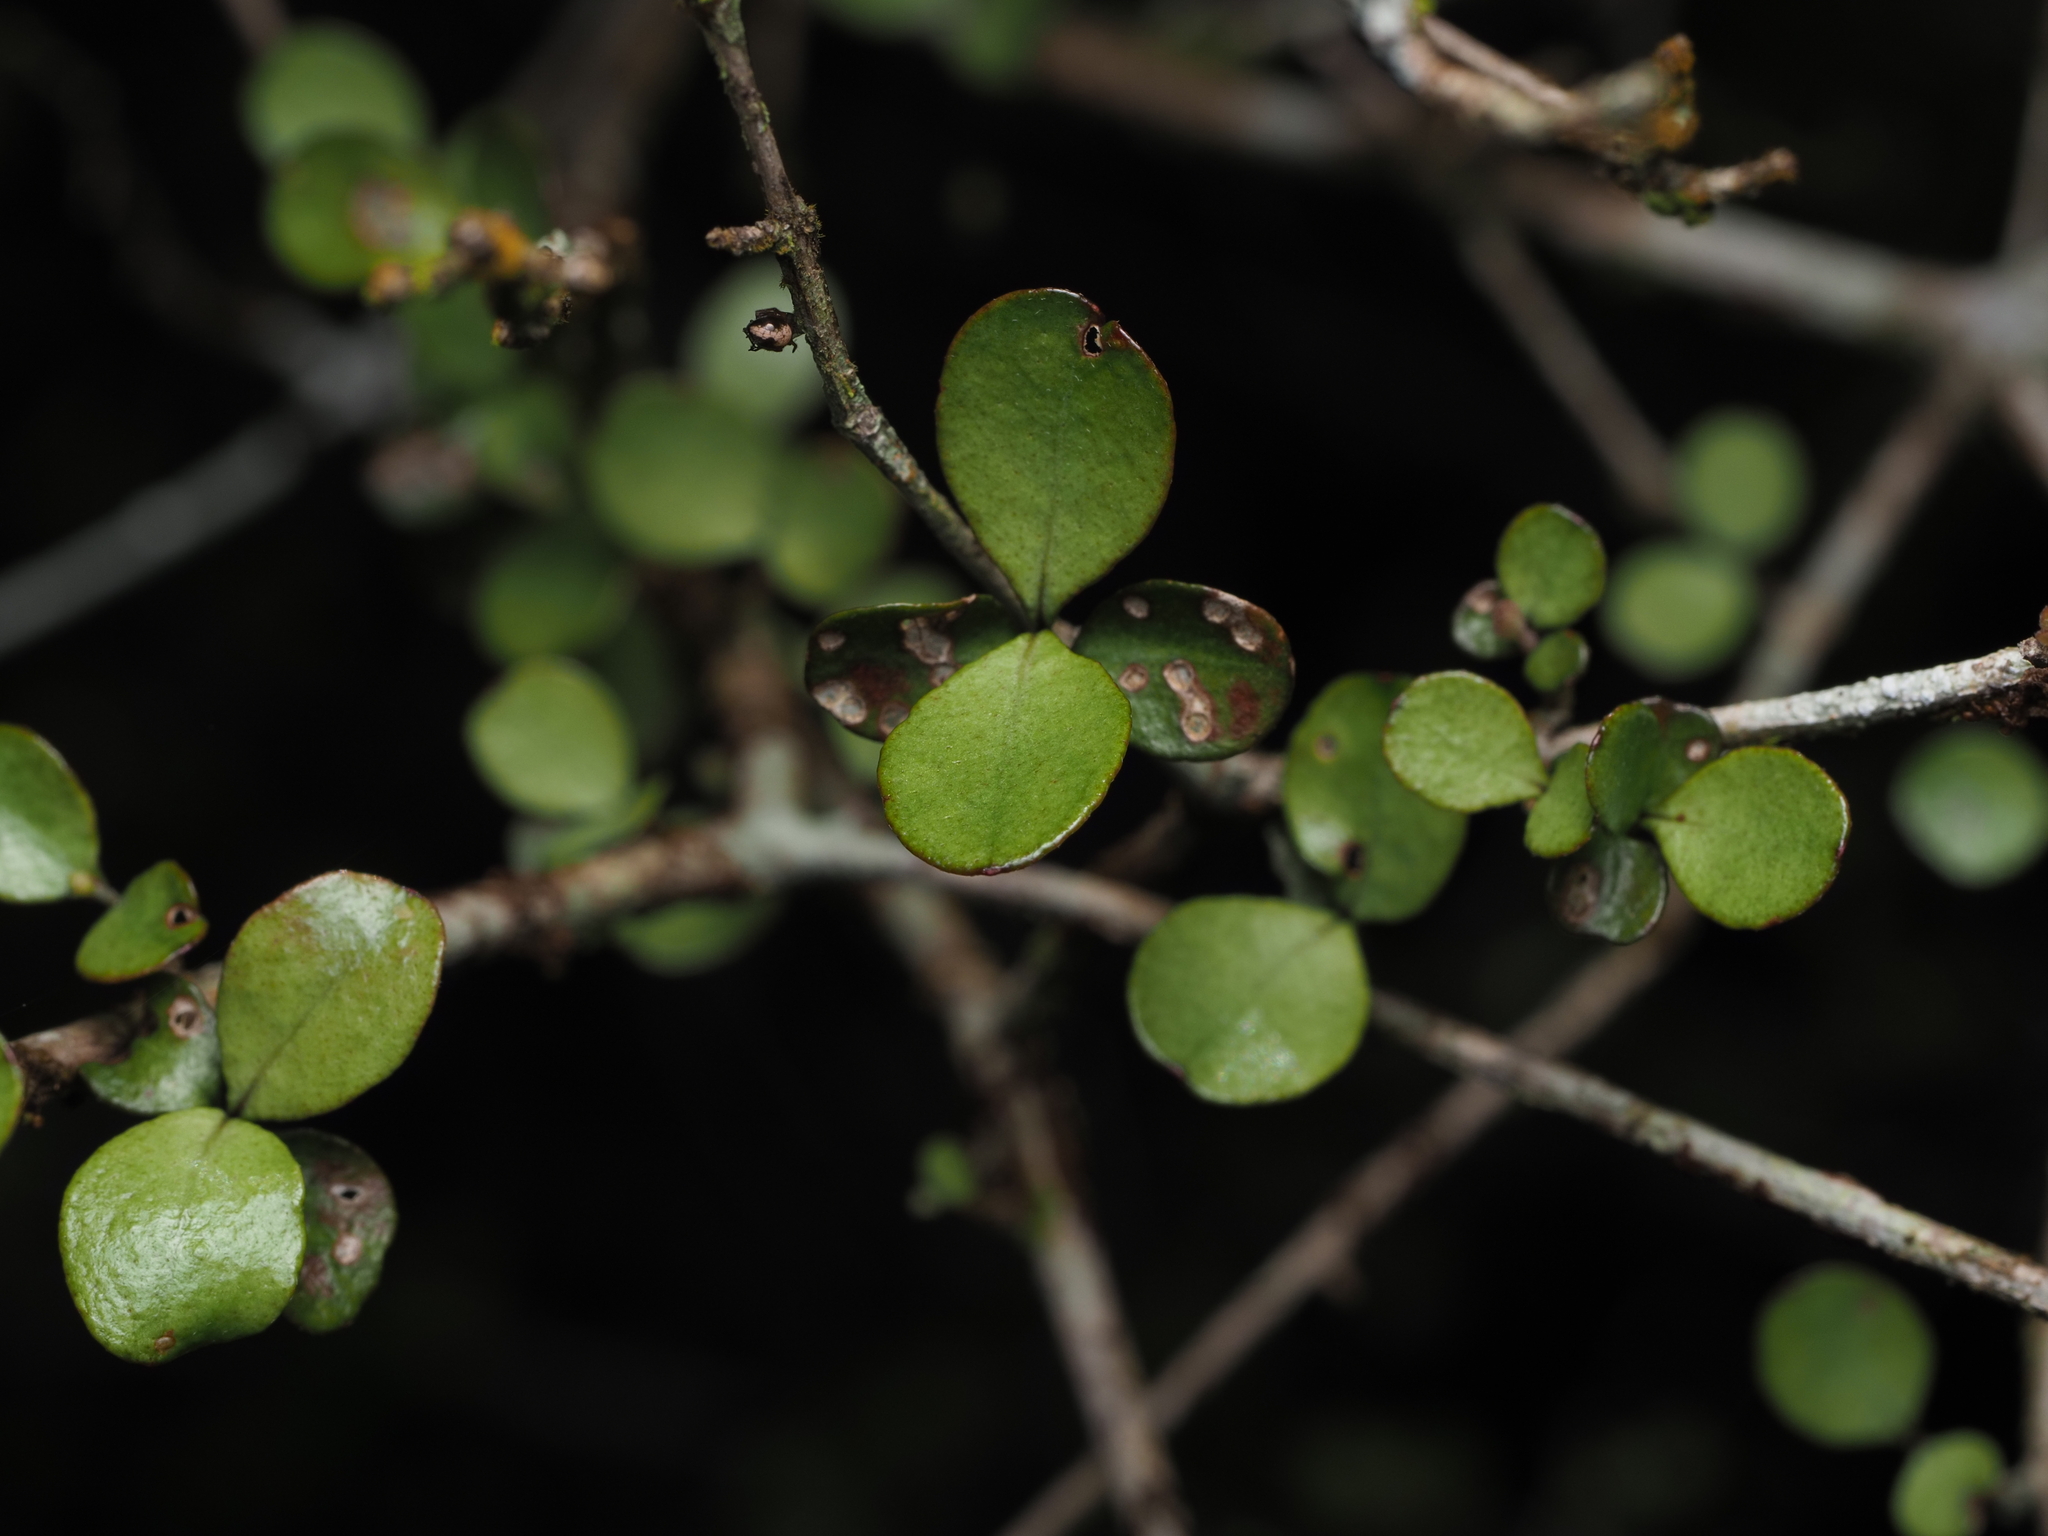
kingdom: Plantae
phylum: Tracheophyta
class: Magnoliopsida
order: Myrtales
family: Myrtaceae
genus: Neomyrtus
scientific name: Neomyrtus pedunculata
